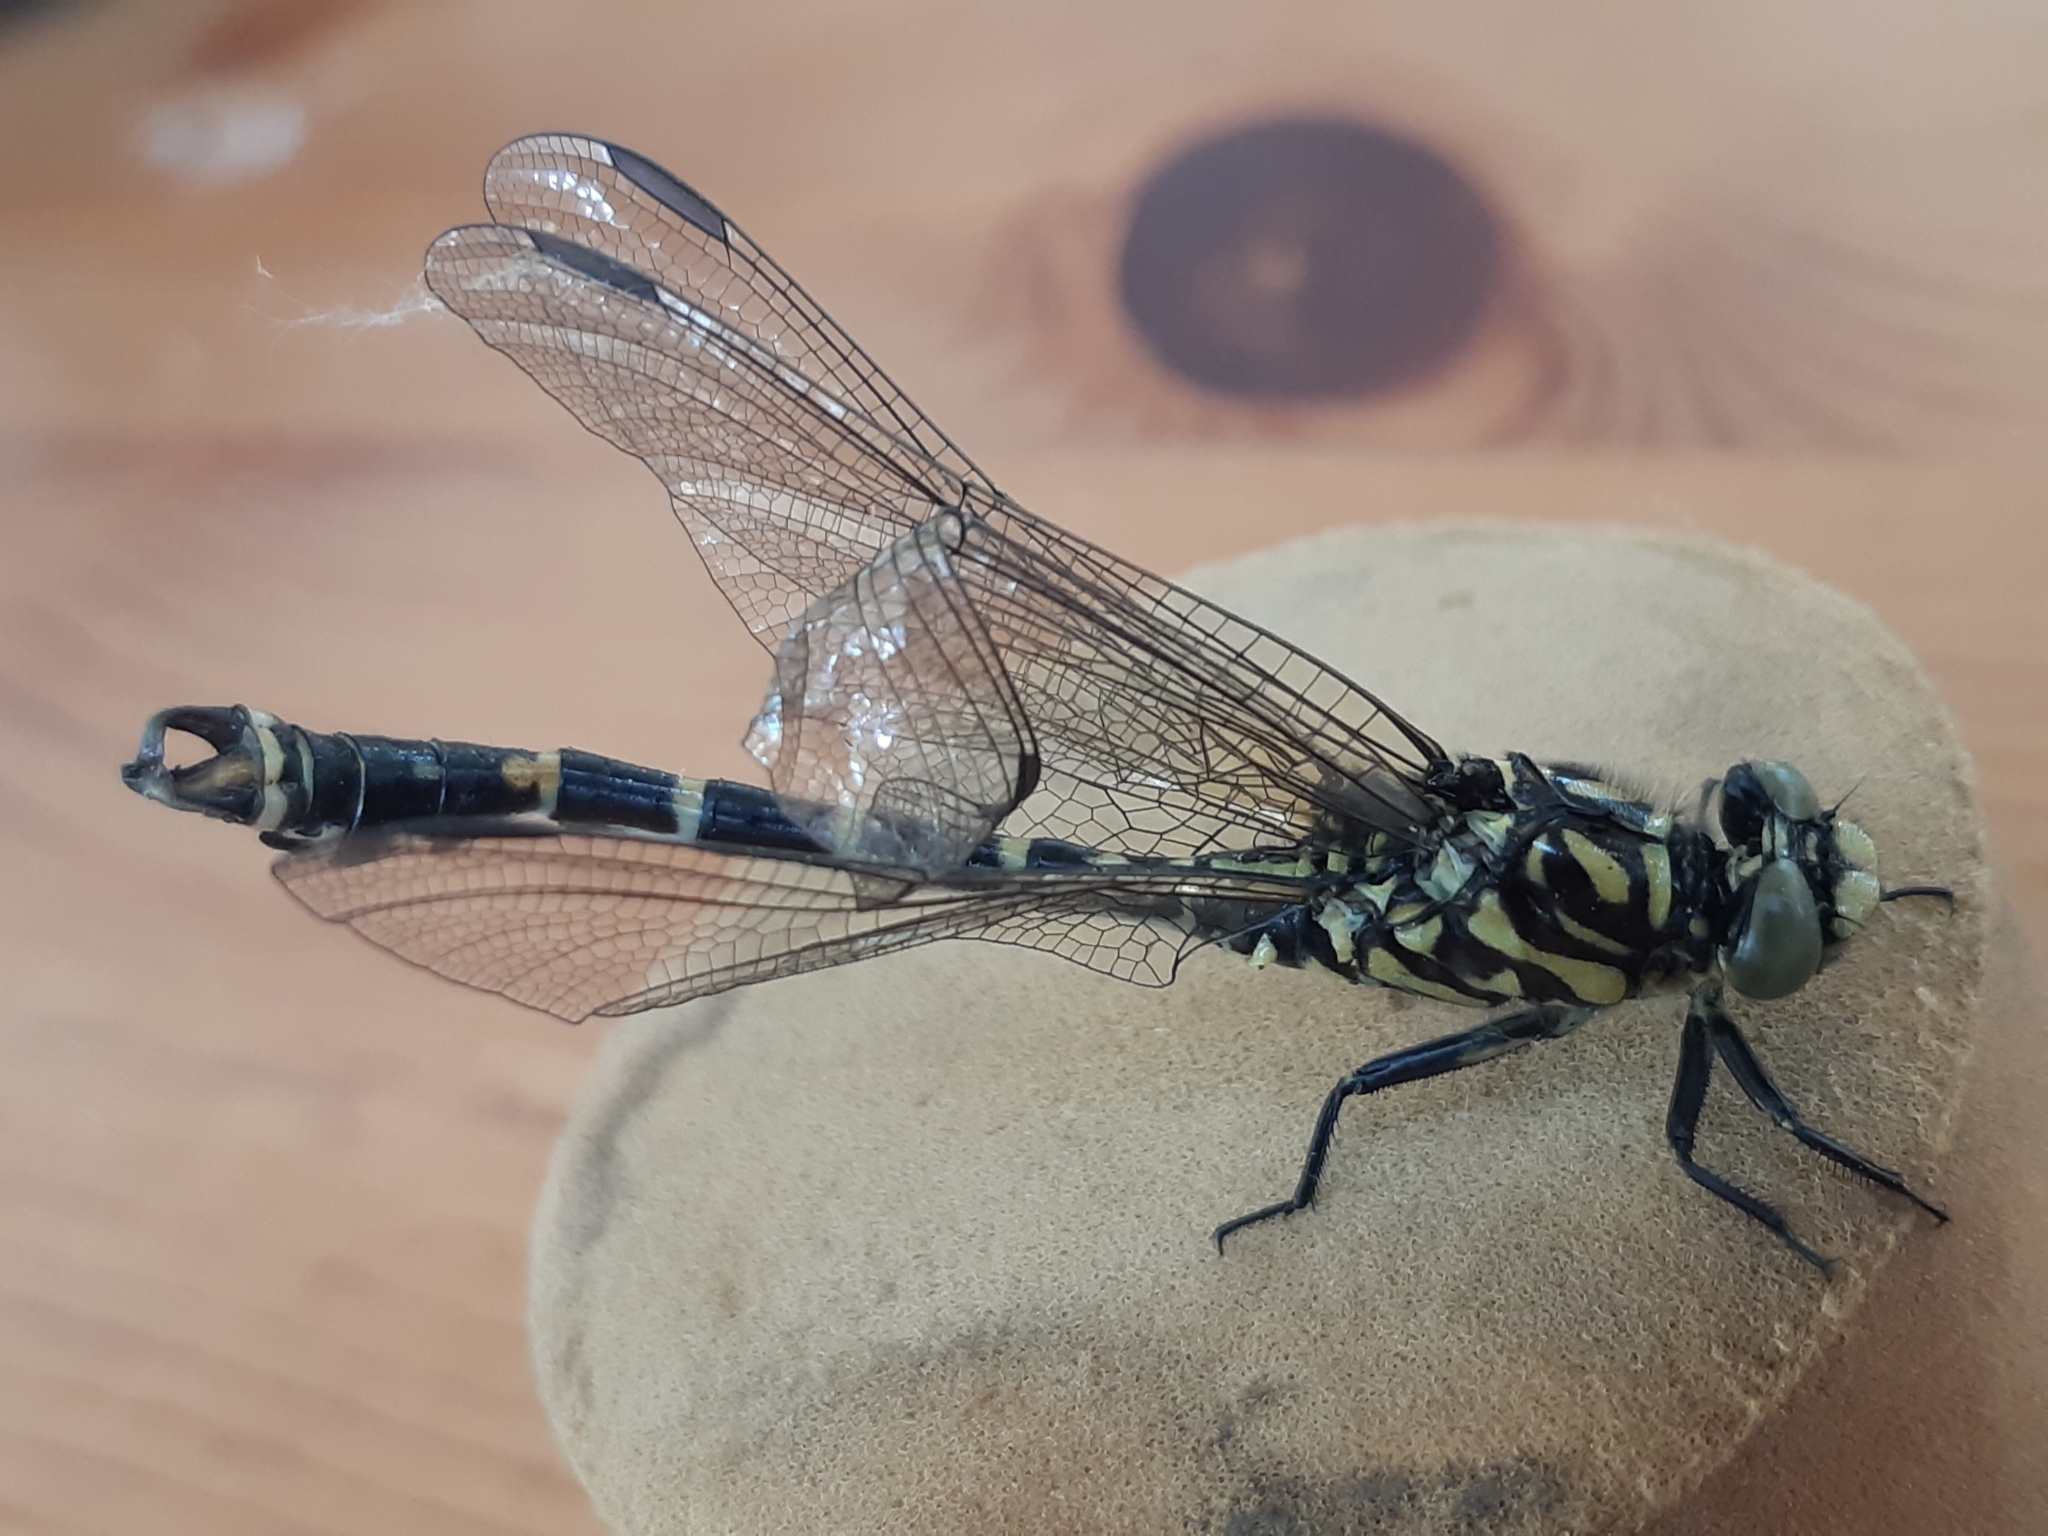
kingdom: Animalia
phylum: Arthropoda
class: Insecta
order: Odonata
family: Gomphidae
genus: Onychogomphus
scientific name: Onychogomphus forcipatus
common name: Small pincertail
